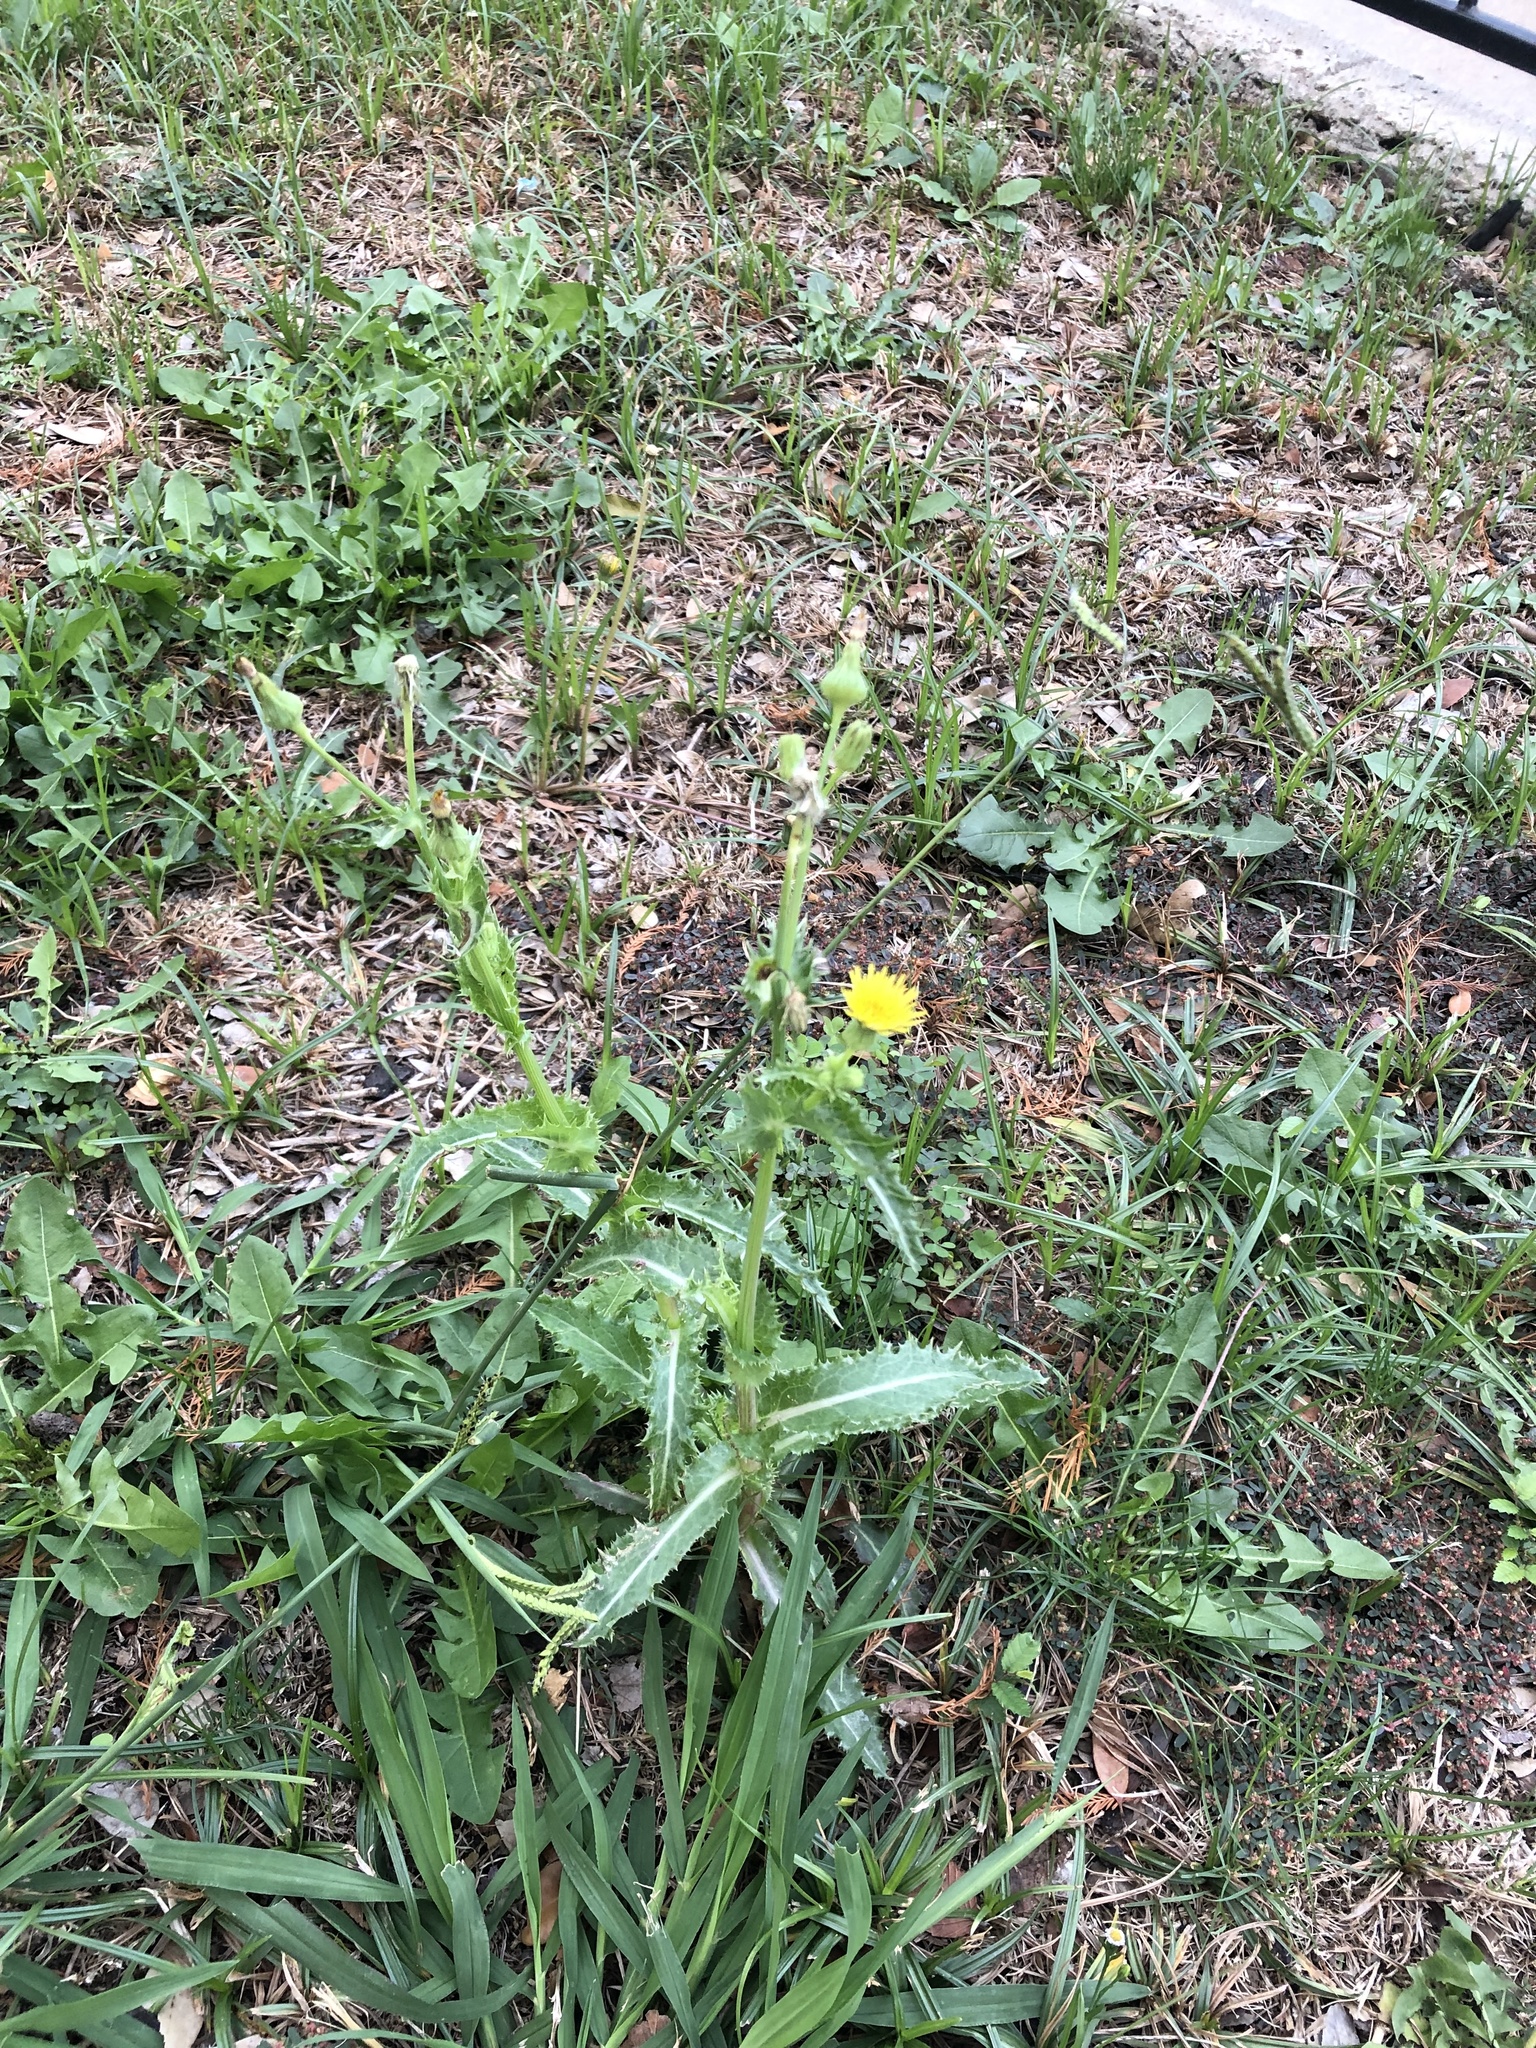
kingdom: Plantae
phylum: Tracheophyta
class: Magnoliopsida
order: Asterales
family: Asteraceae
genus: Sonchus
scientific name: Sonchus asper
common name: Prickly sow-thistle
